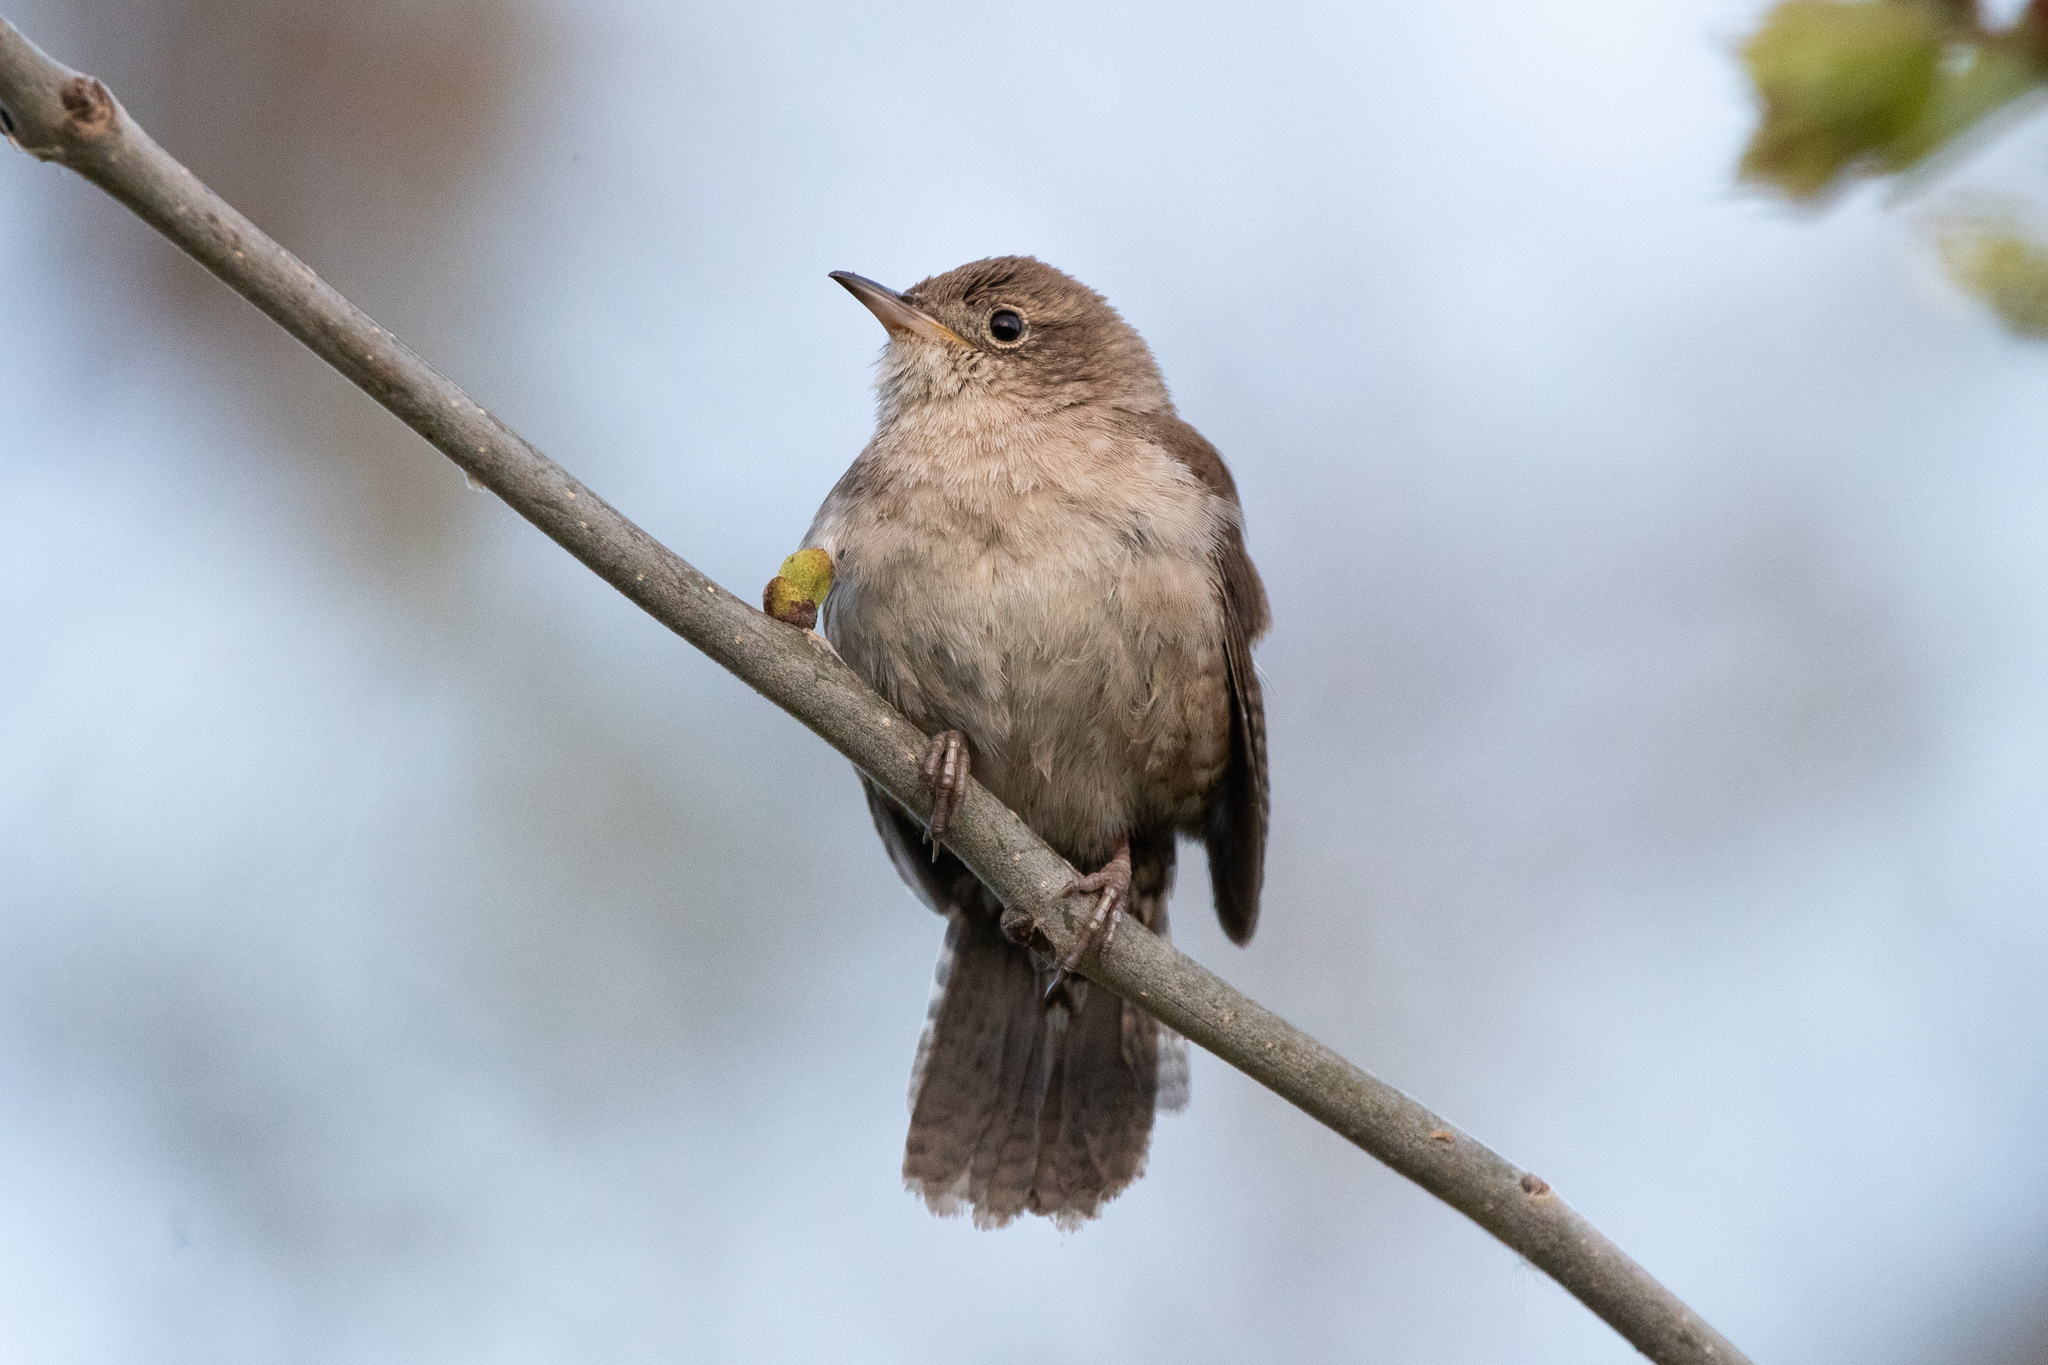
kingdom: Animalia
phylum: Chordata
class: Aves
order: Passeriformes
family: Troglodytidae
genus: Troglodytes
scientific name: Troglodytes aedon
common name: House wren
